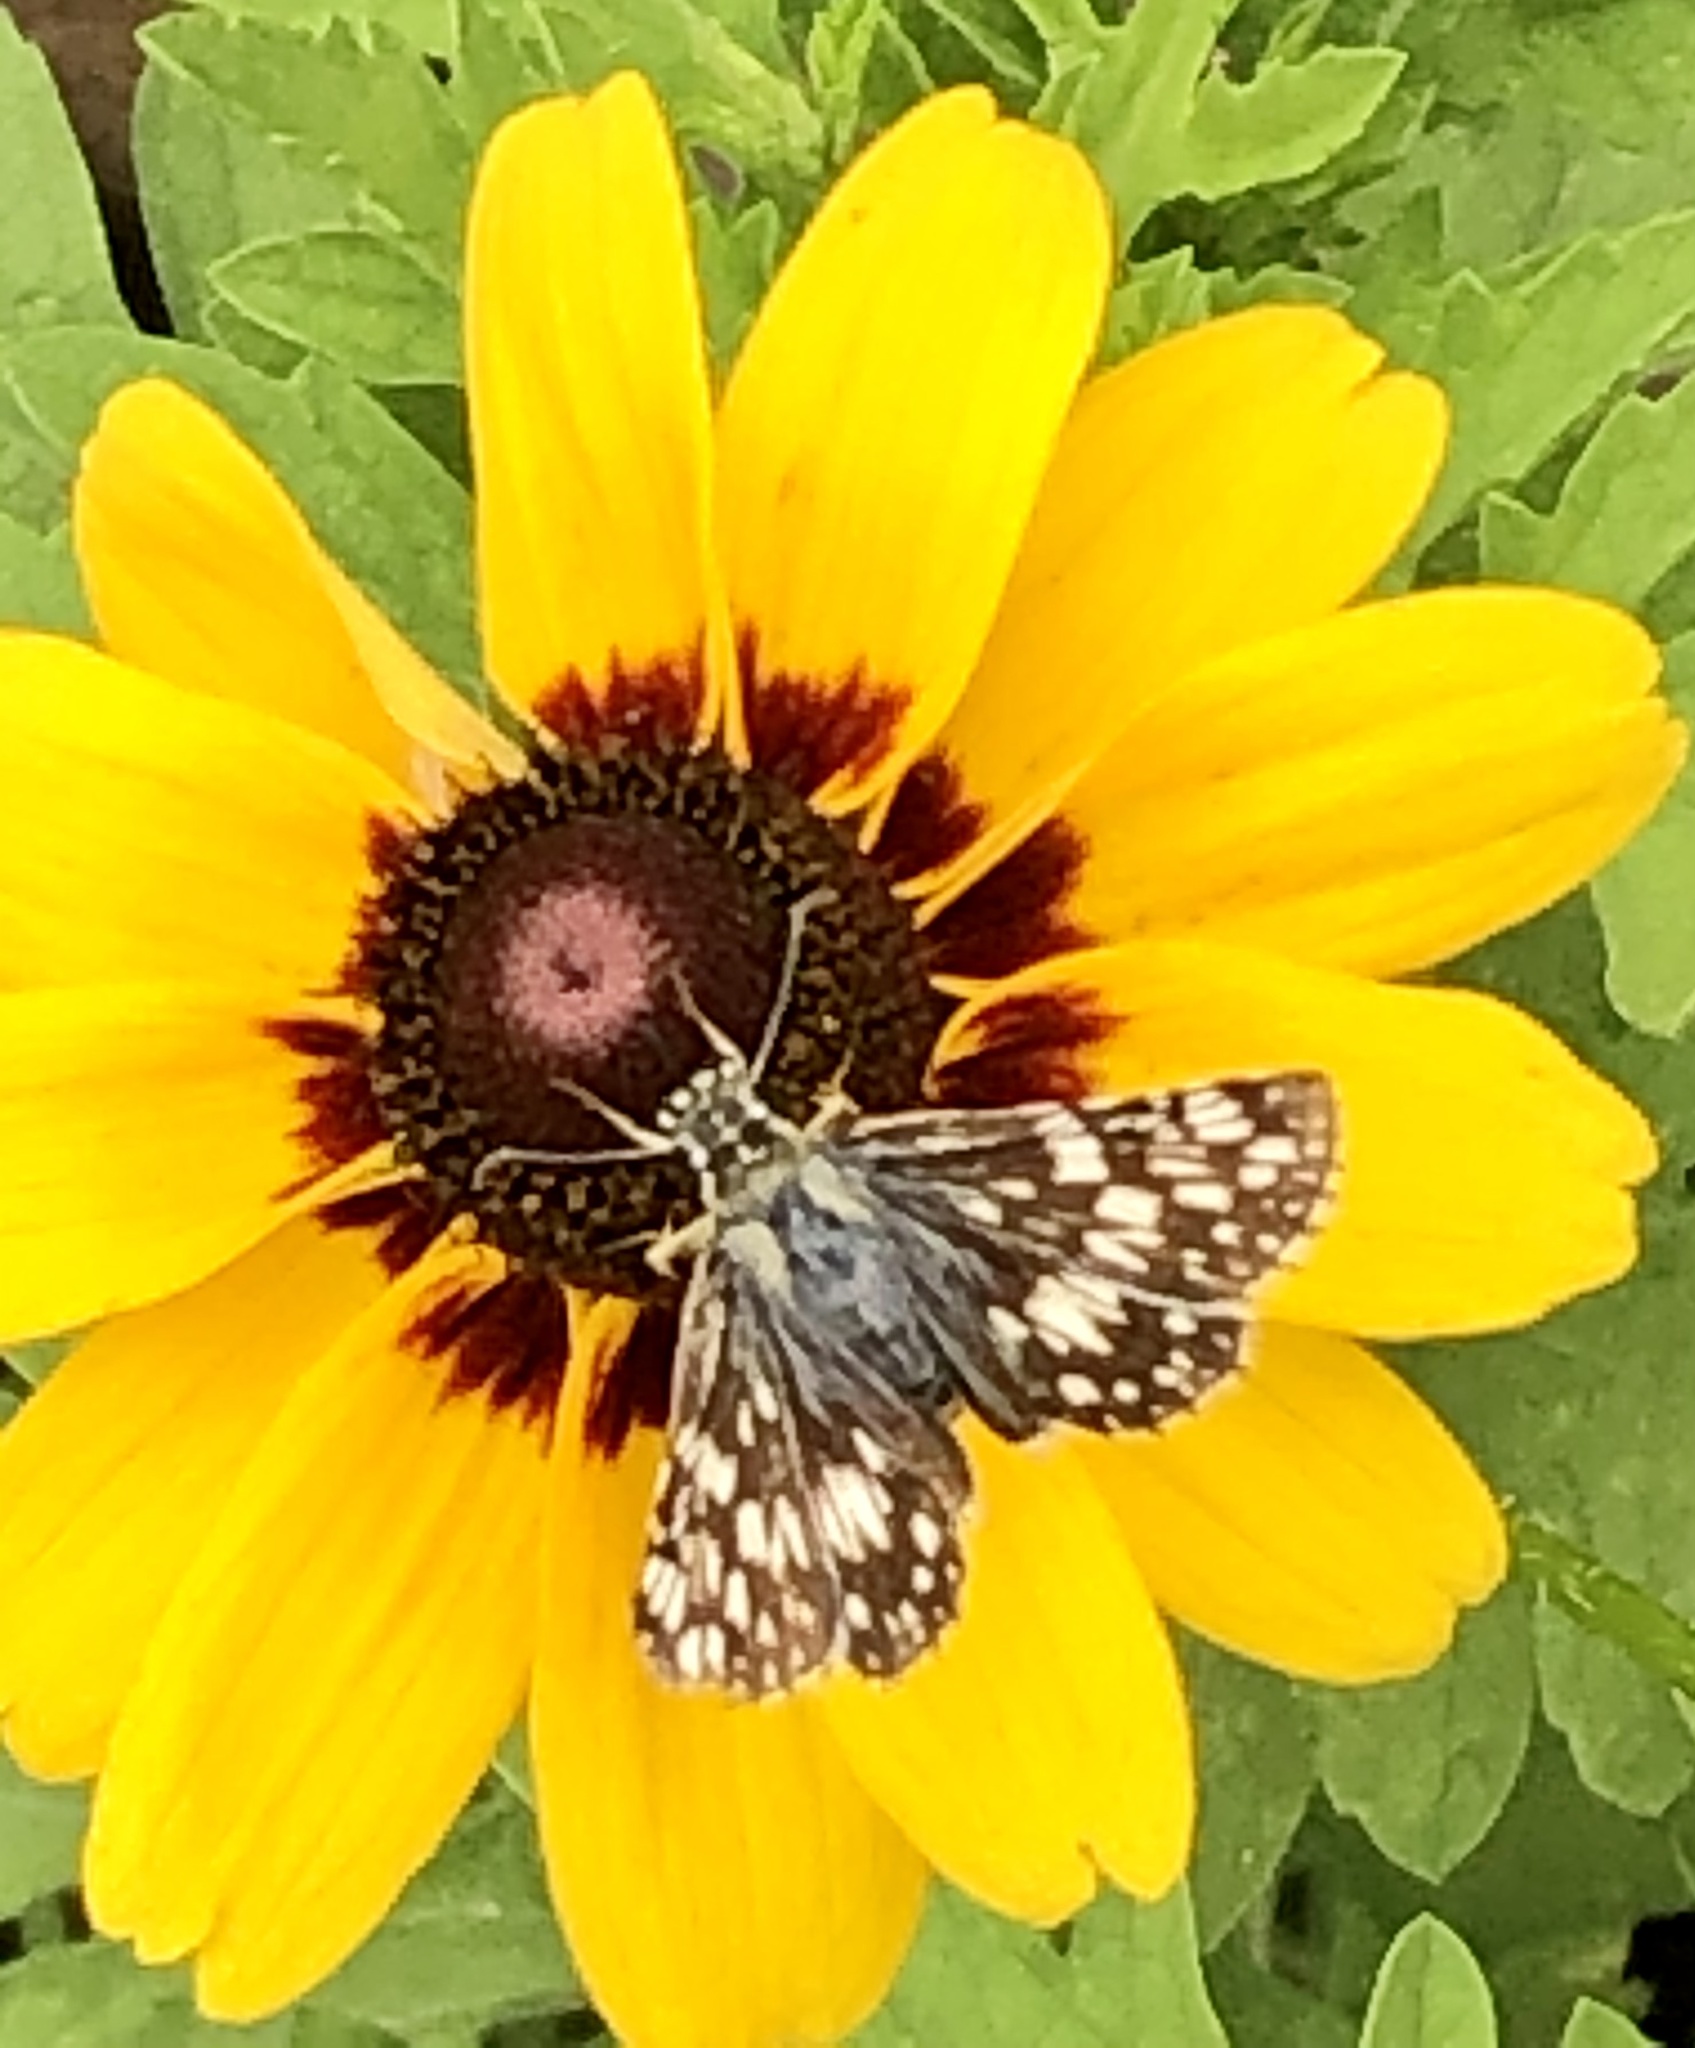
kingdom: Animalia
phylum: Arthropoda
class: Insecta
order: Lepidoptera
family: Hesperiidae
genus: Burnsius
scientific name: Burnsius
